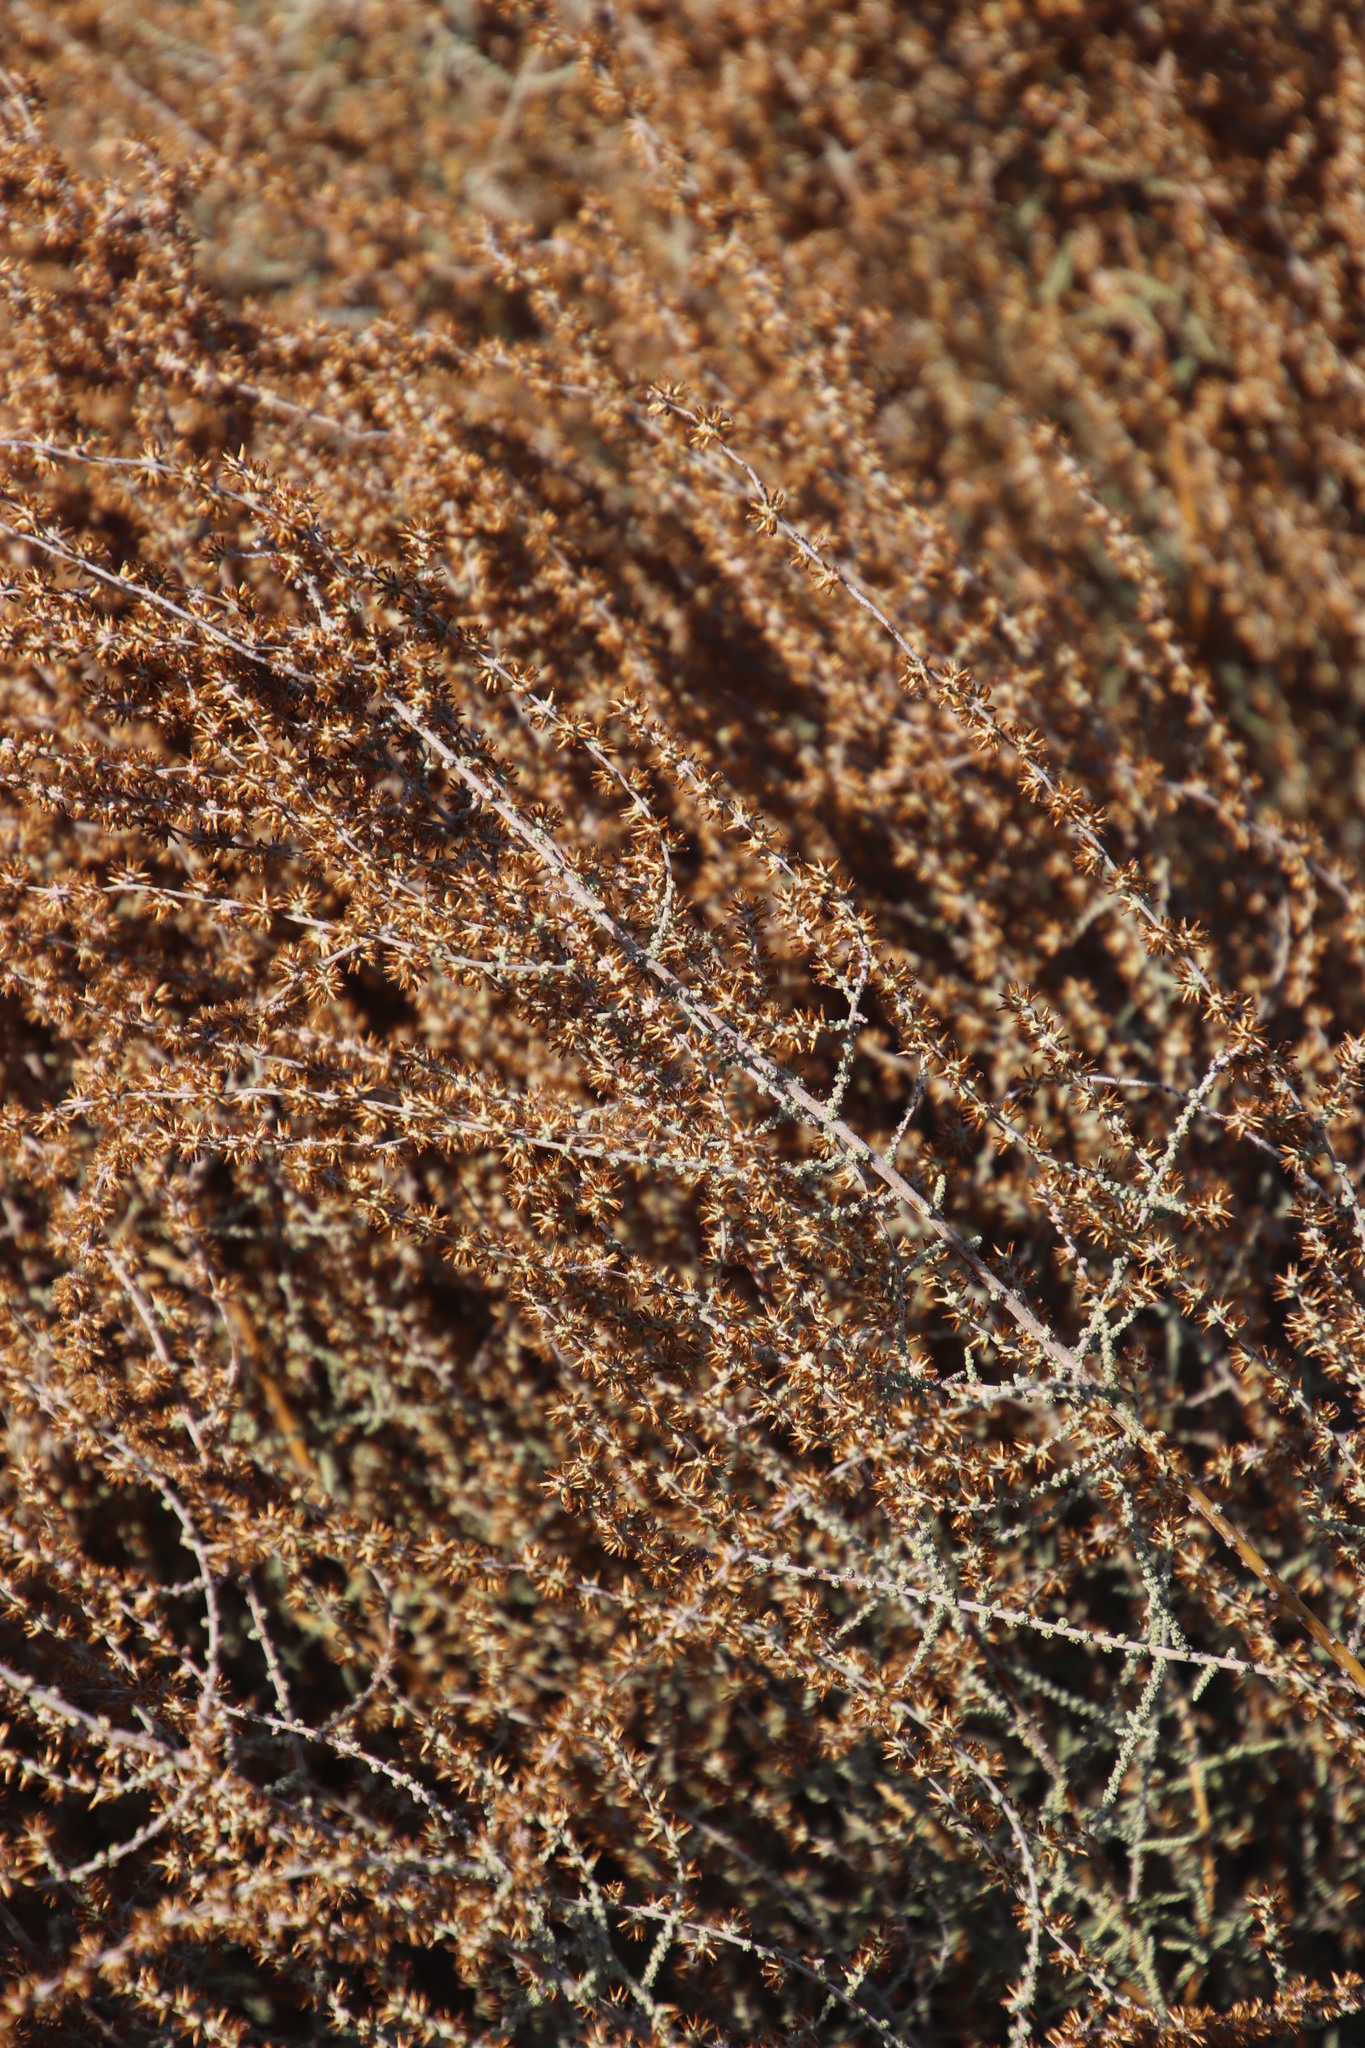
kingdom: Plantae
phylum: Tracheophyta
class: Magnoliopsida
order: Asterales
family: Asteraceae
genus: Seriphium
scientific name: Seriphium plumosum
